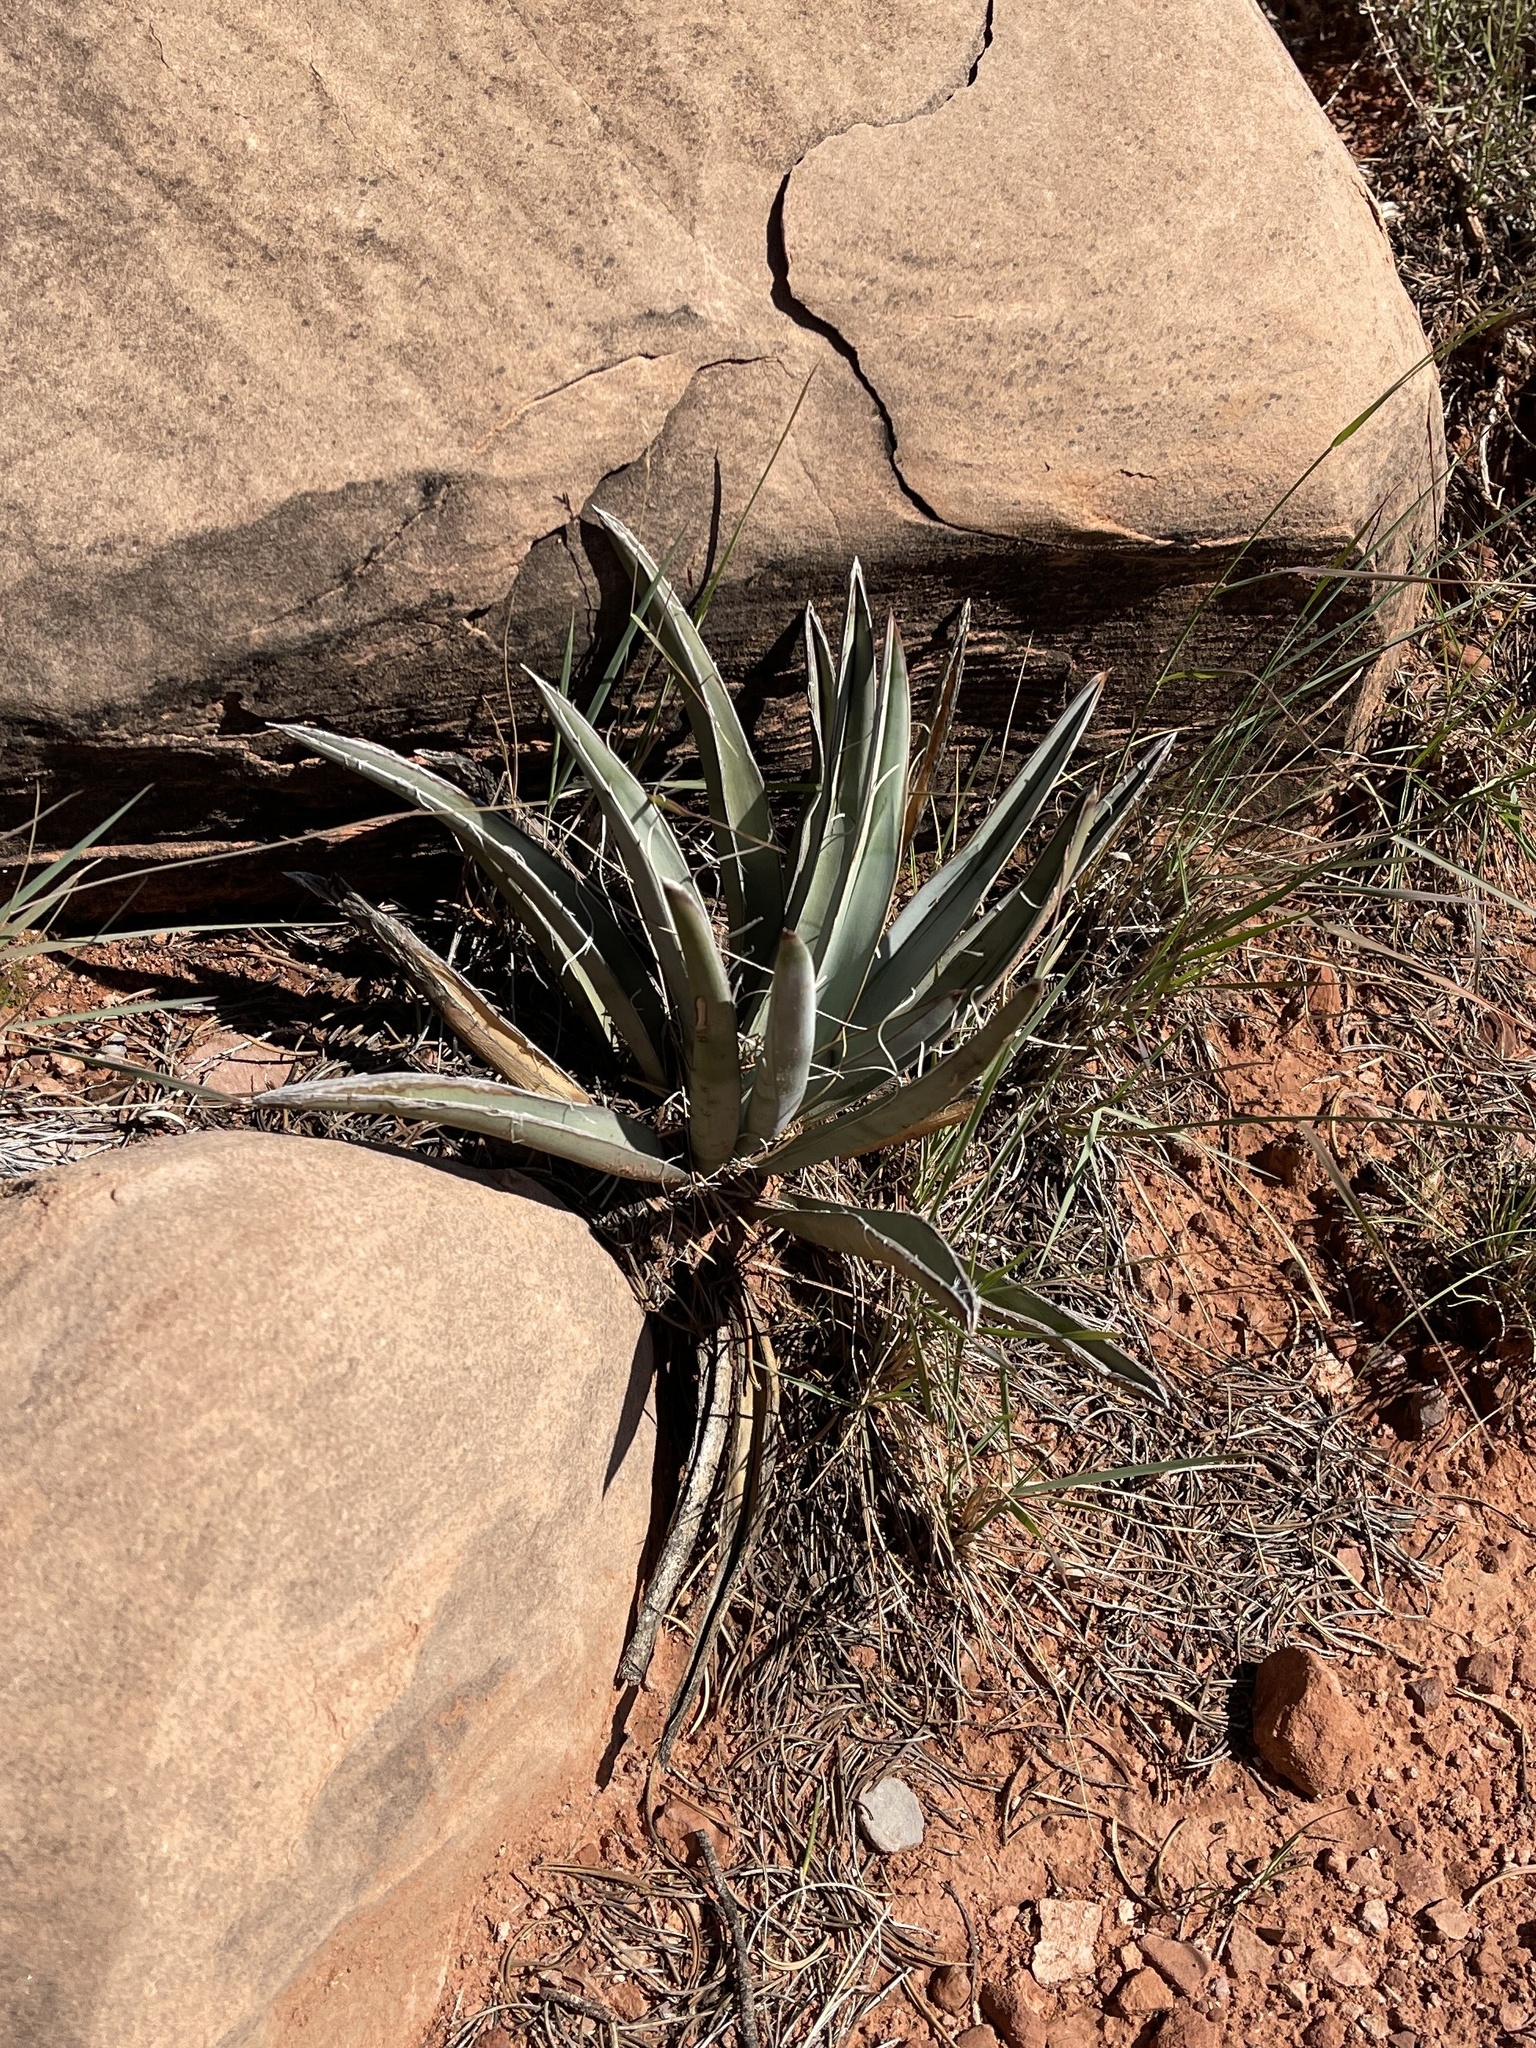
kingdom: Plantae
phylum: Tracheophyta
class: Liliopsida
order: Asparagales
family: Asparagaceae
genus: Yucca
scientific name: Yucca baccata
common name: Banana yucca
